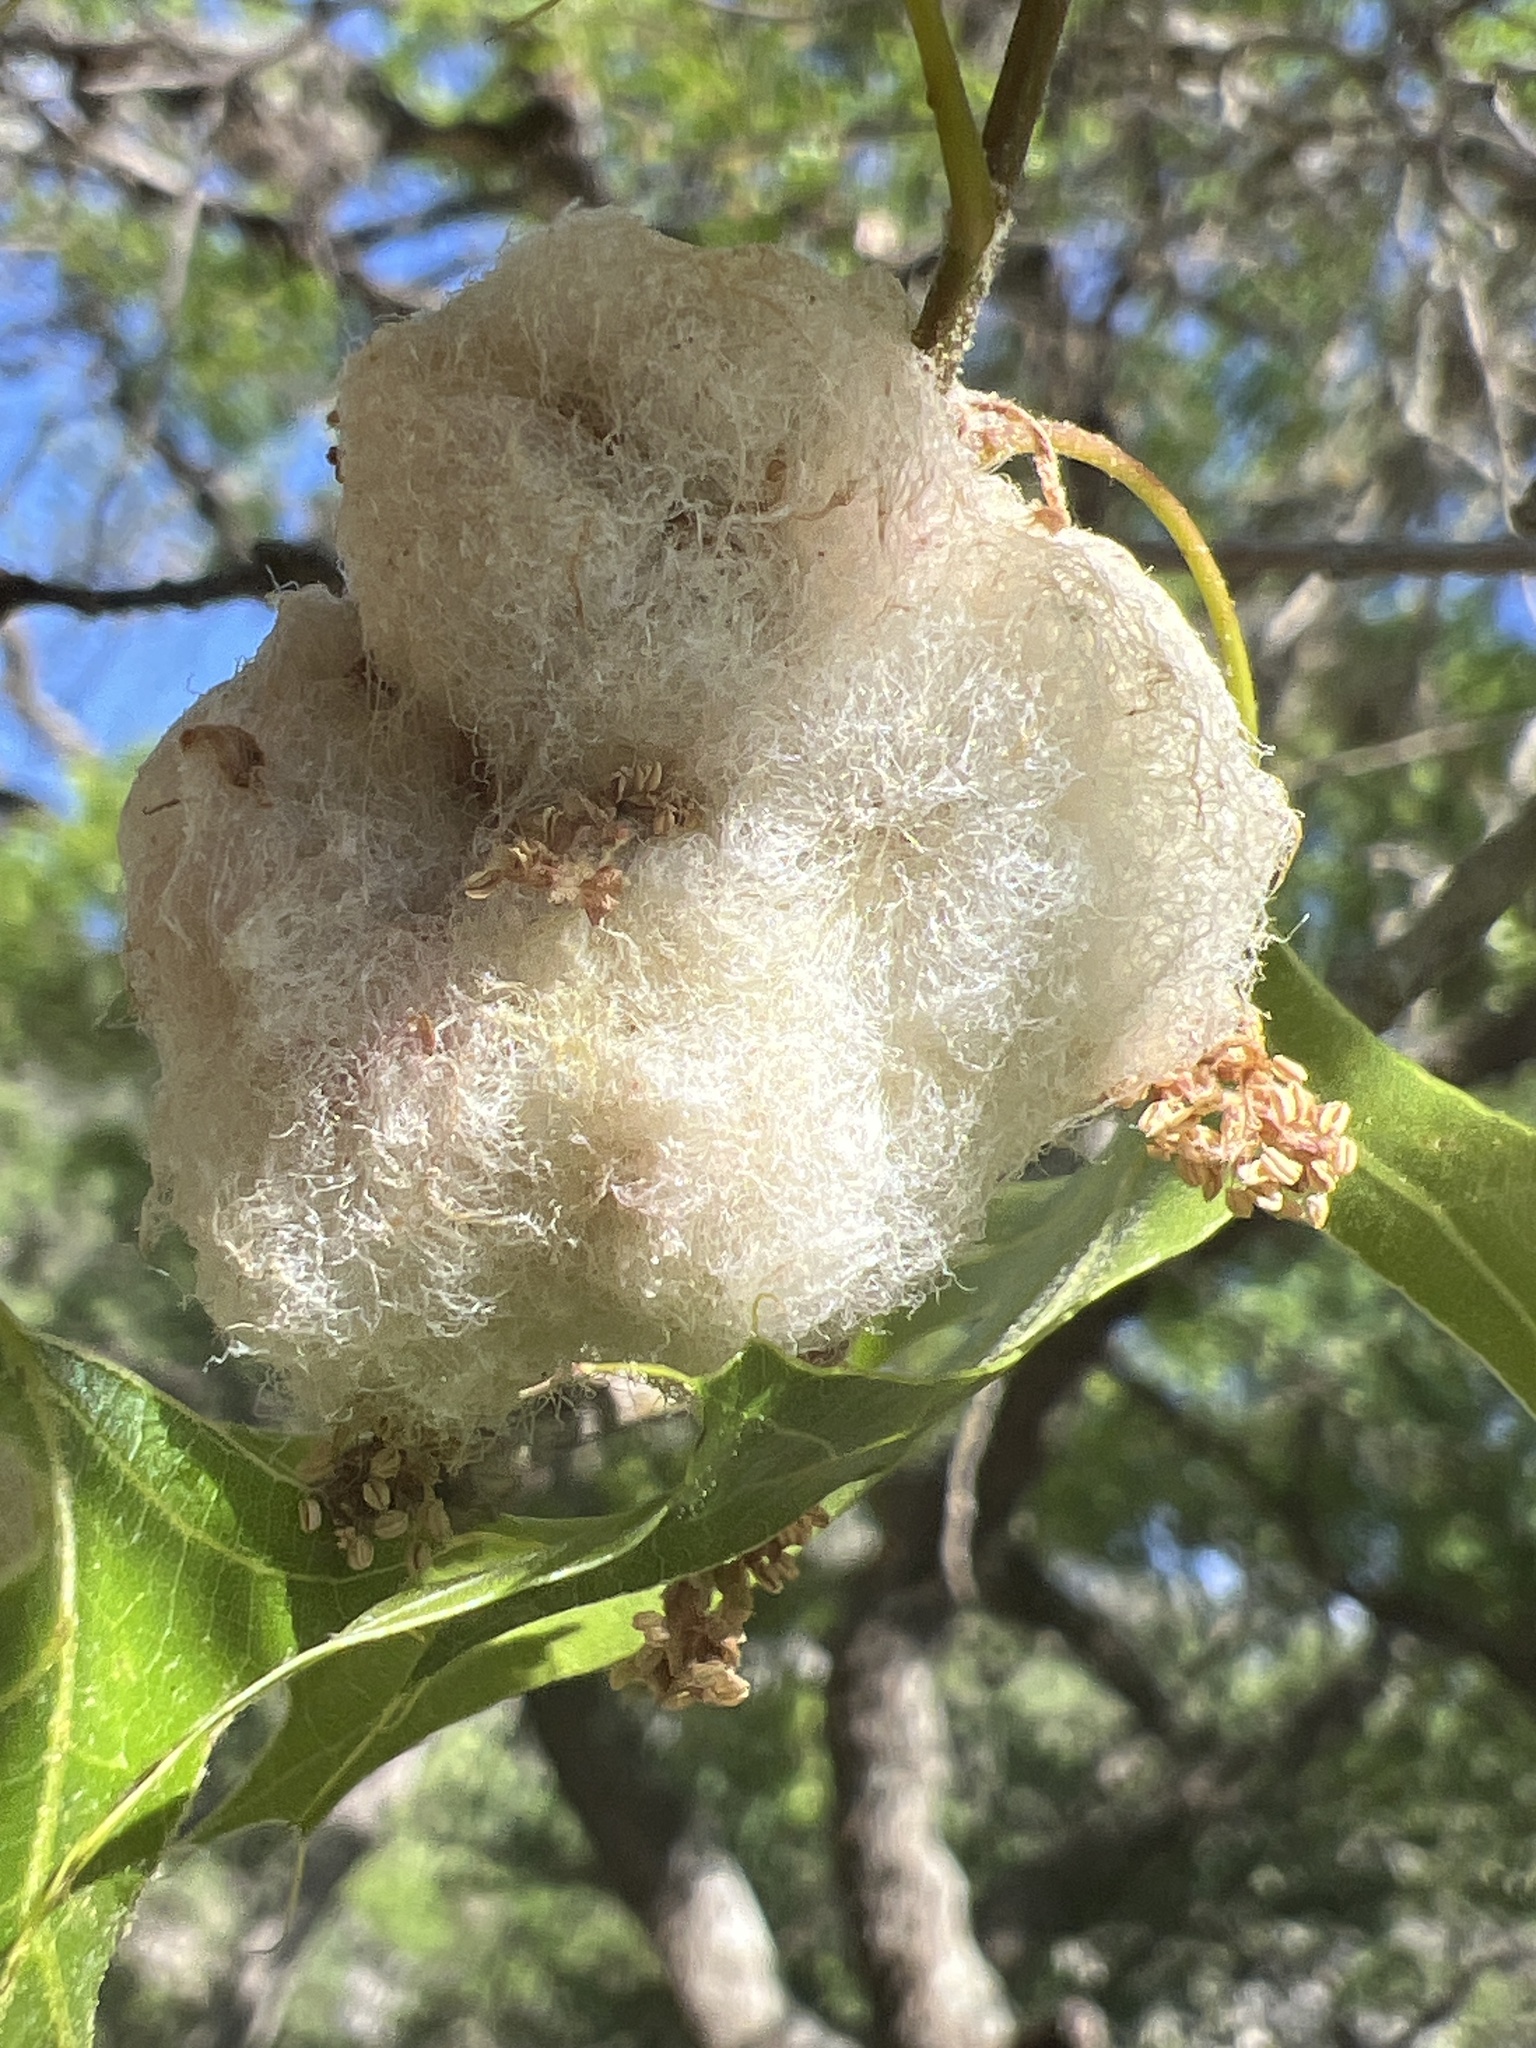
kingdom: Animalia
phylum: Arthropoda
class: Insecta
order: Hymenoptera
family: Cynipidae
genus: Callirhytis
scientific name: Callirhytis
